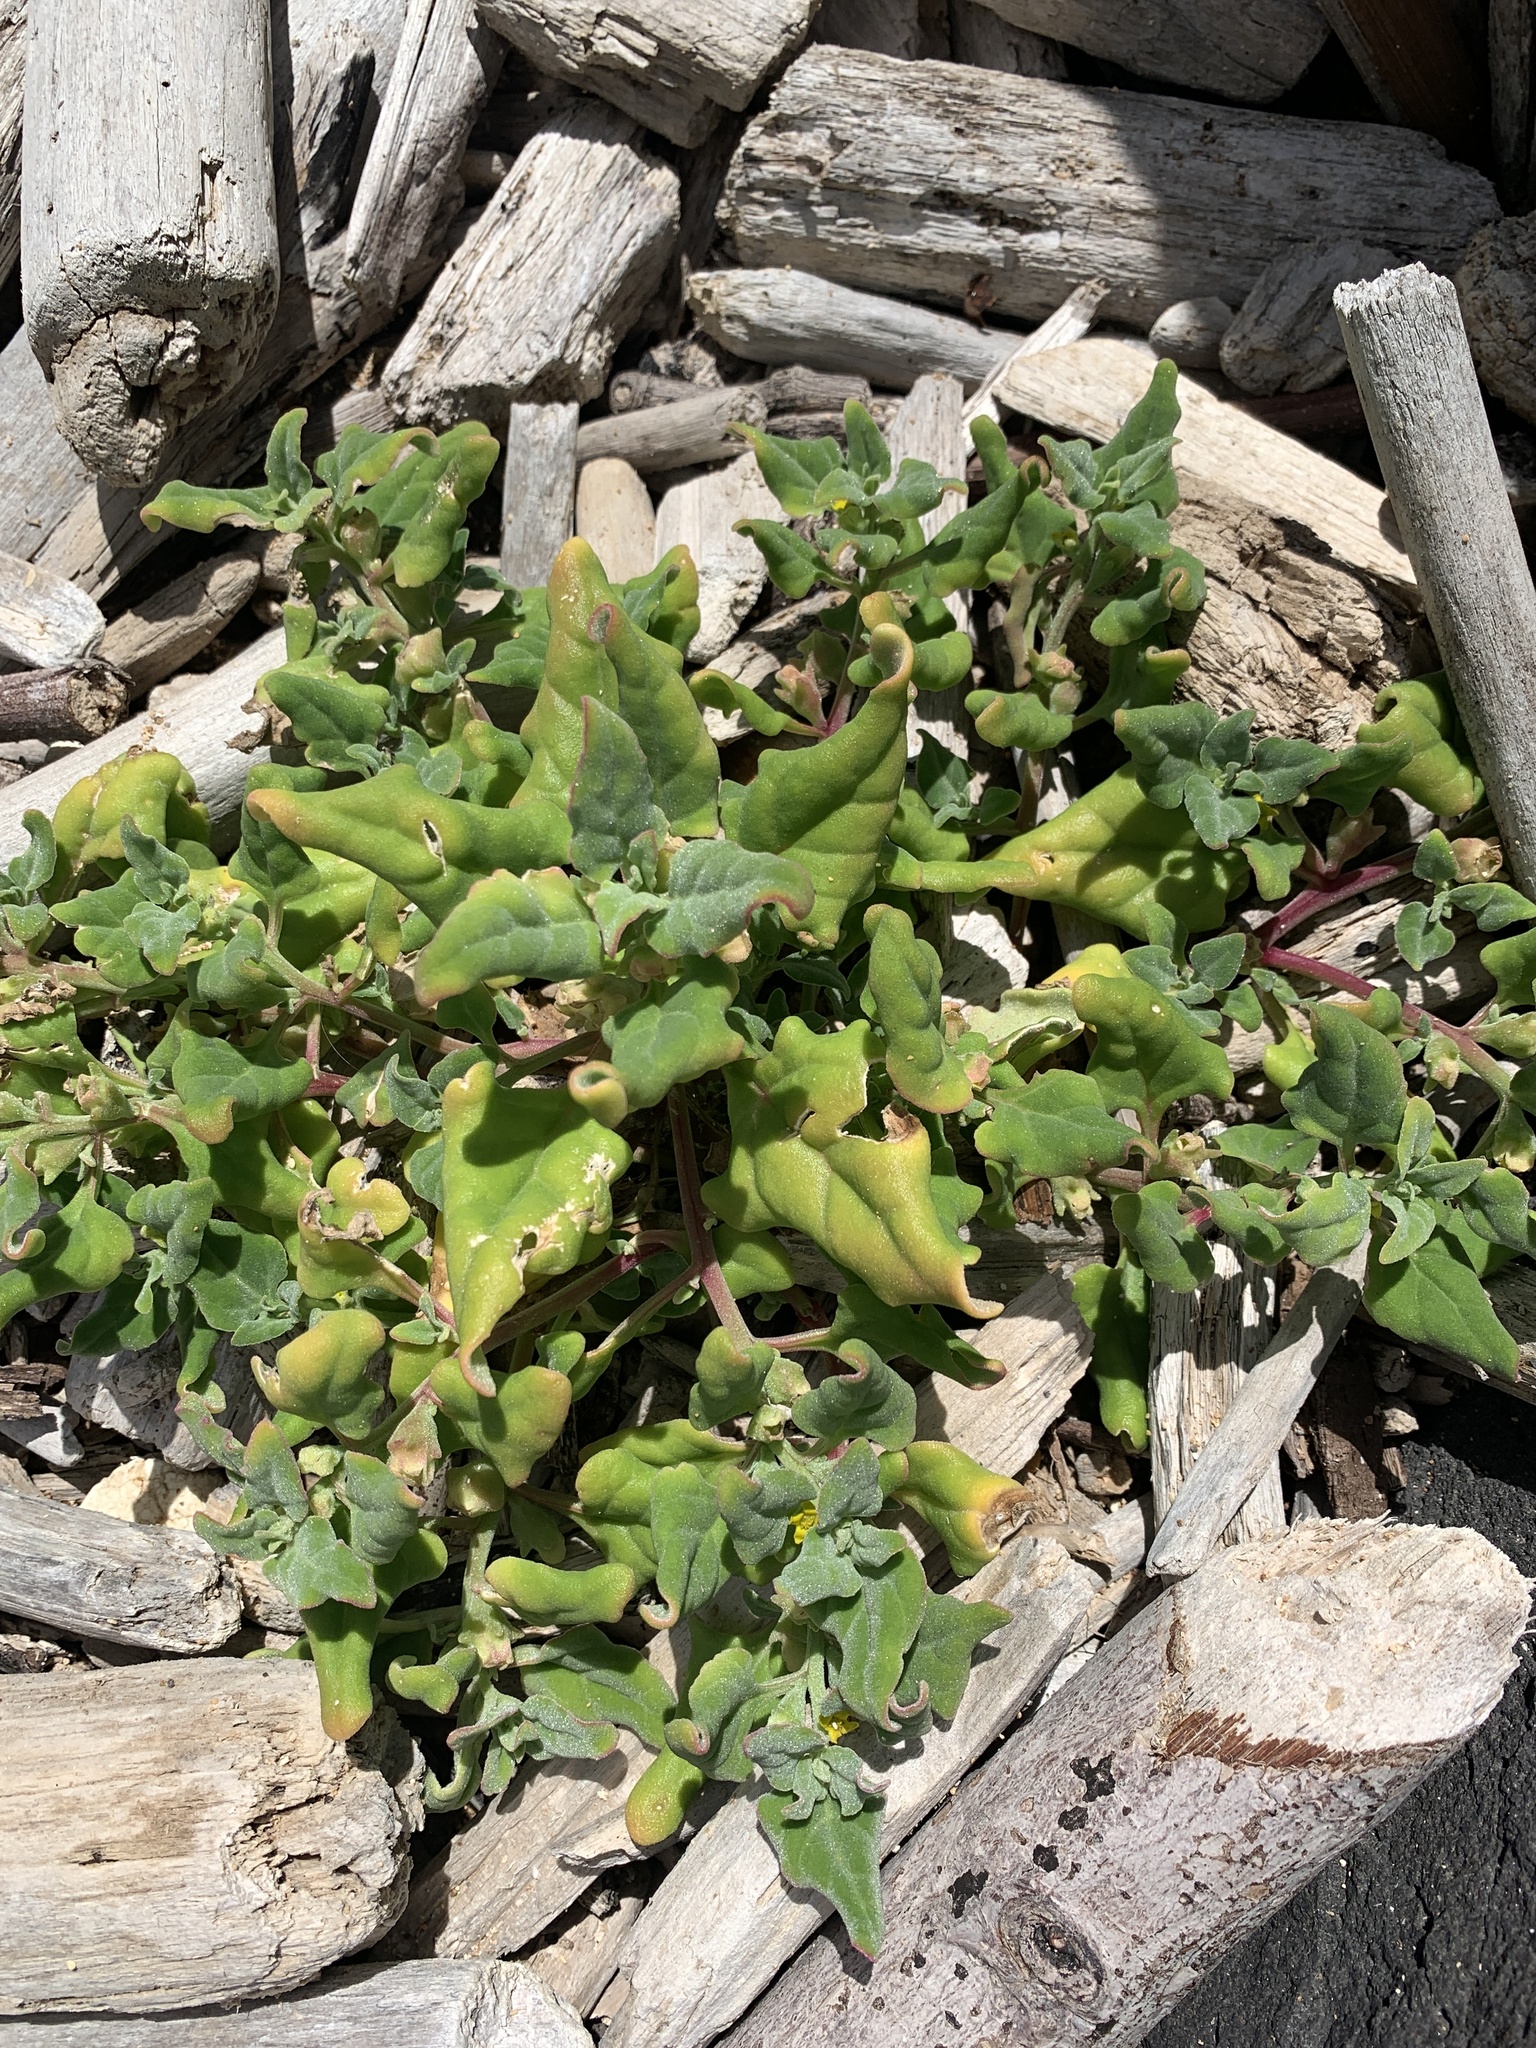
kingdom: Plantae
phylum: Tracheophyta
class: Magnoliopsida
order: Caryophyllales
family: Aizoaceae
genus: Tetragonia
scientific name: Tetragonia tetragonoides
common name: New zealand-spinach
